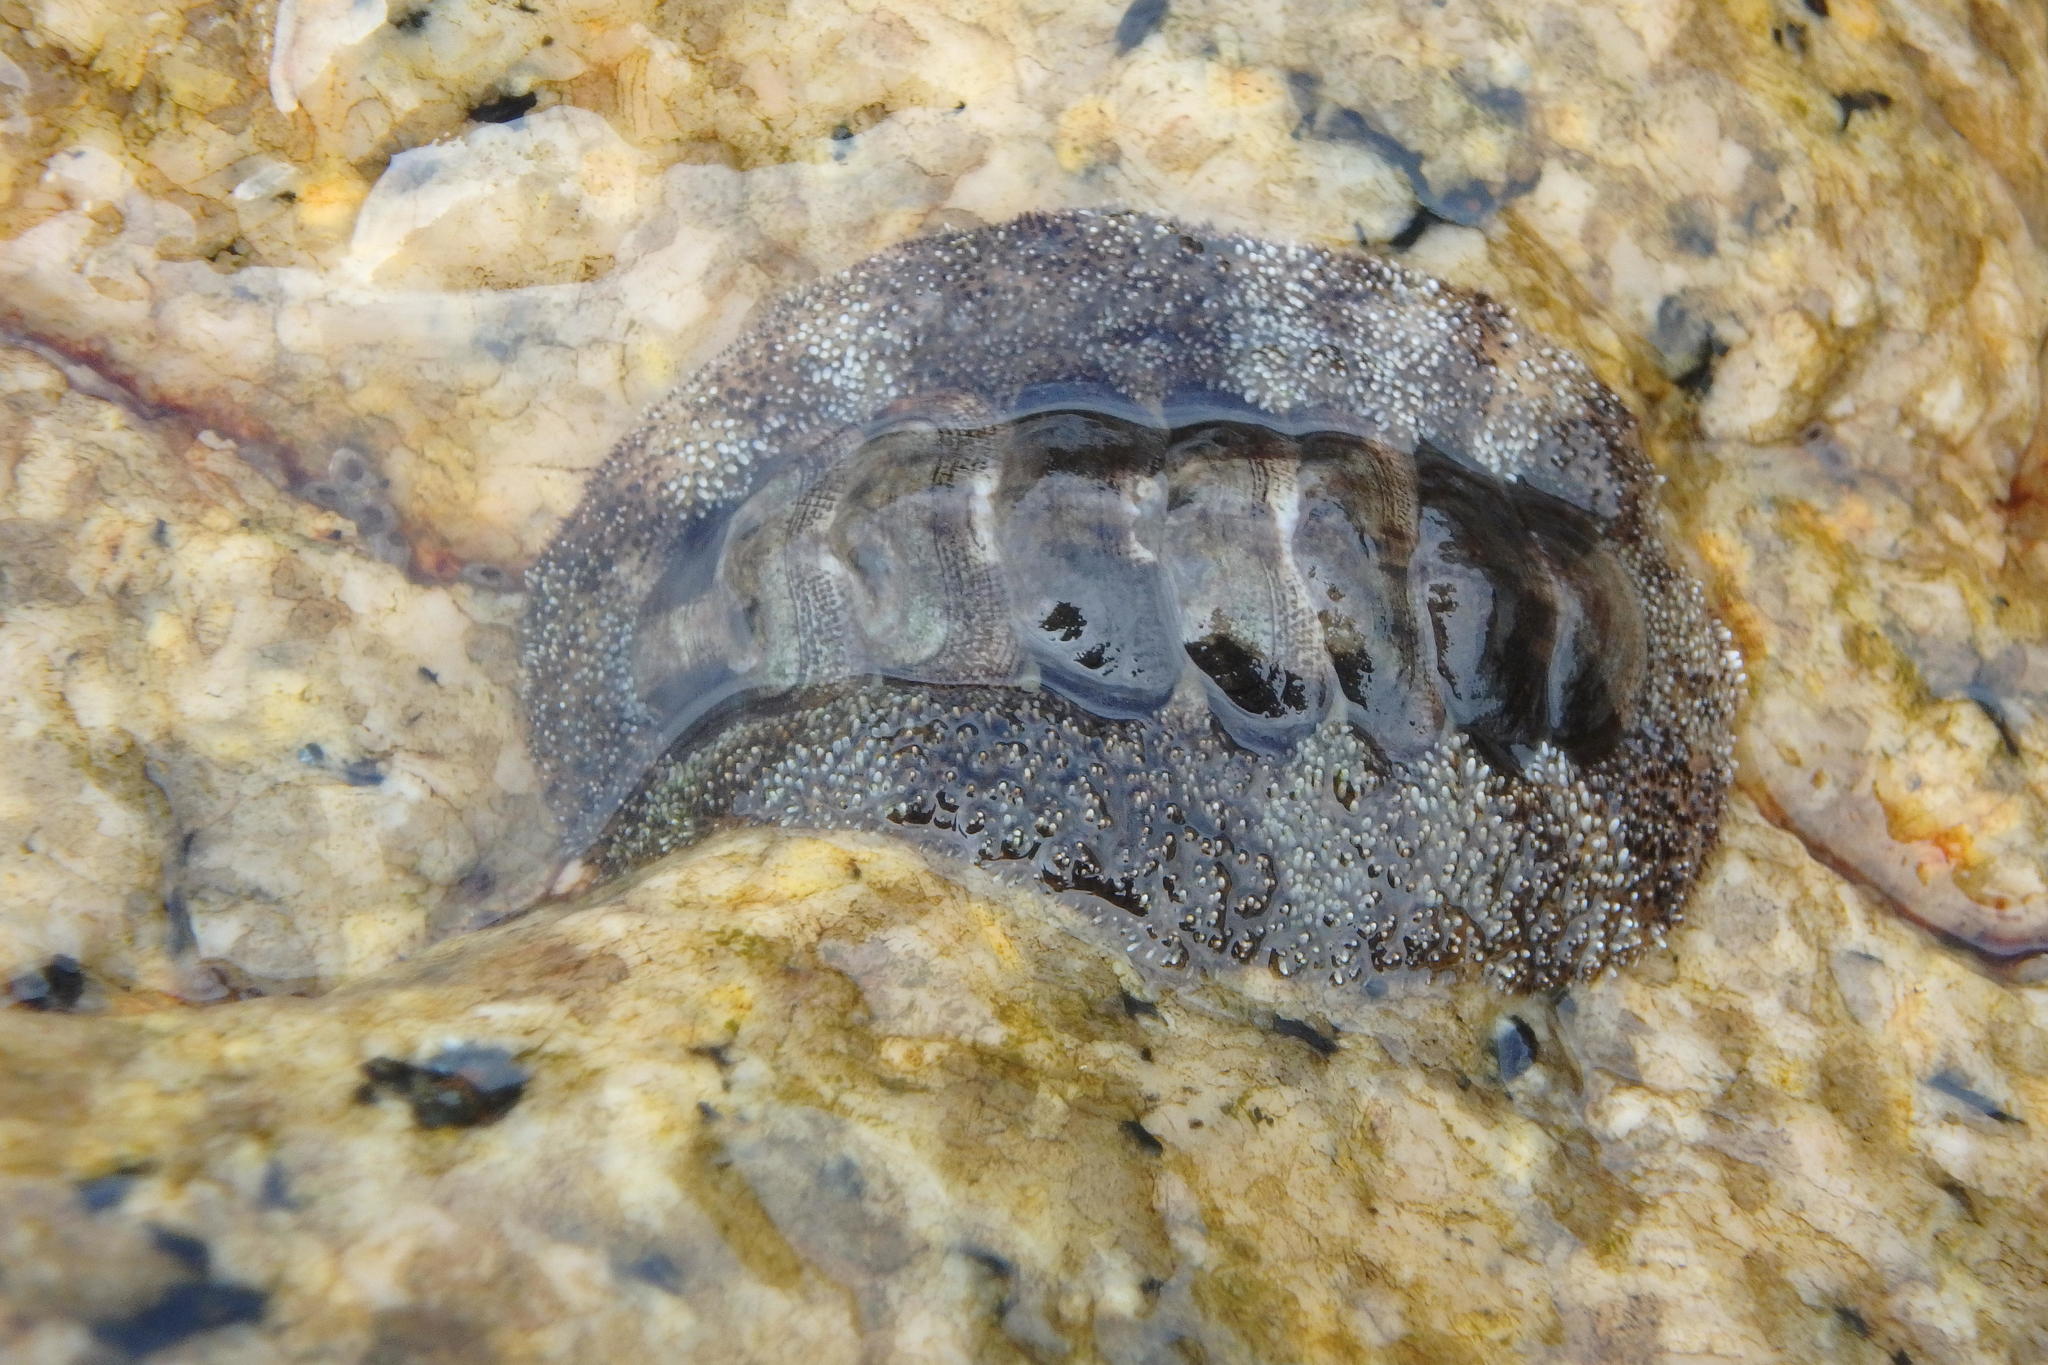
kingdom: Animalia
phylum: Mollusca
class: Polyplacophora
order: Chitonida
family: Chitonidae
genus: Liolophura
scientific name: Liolophura japonica
